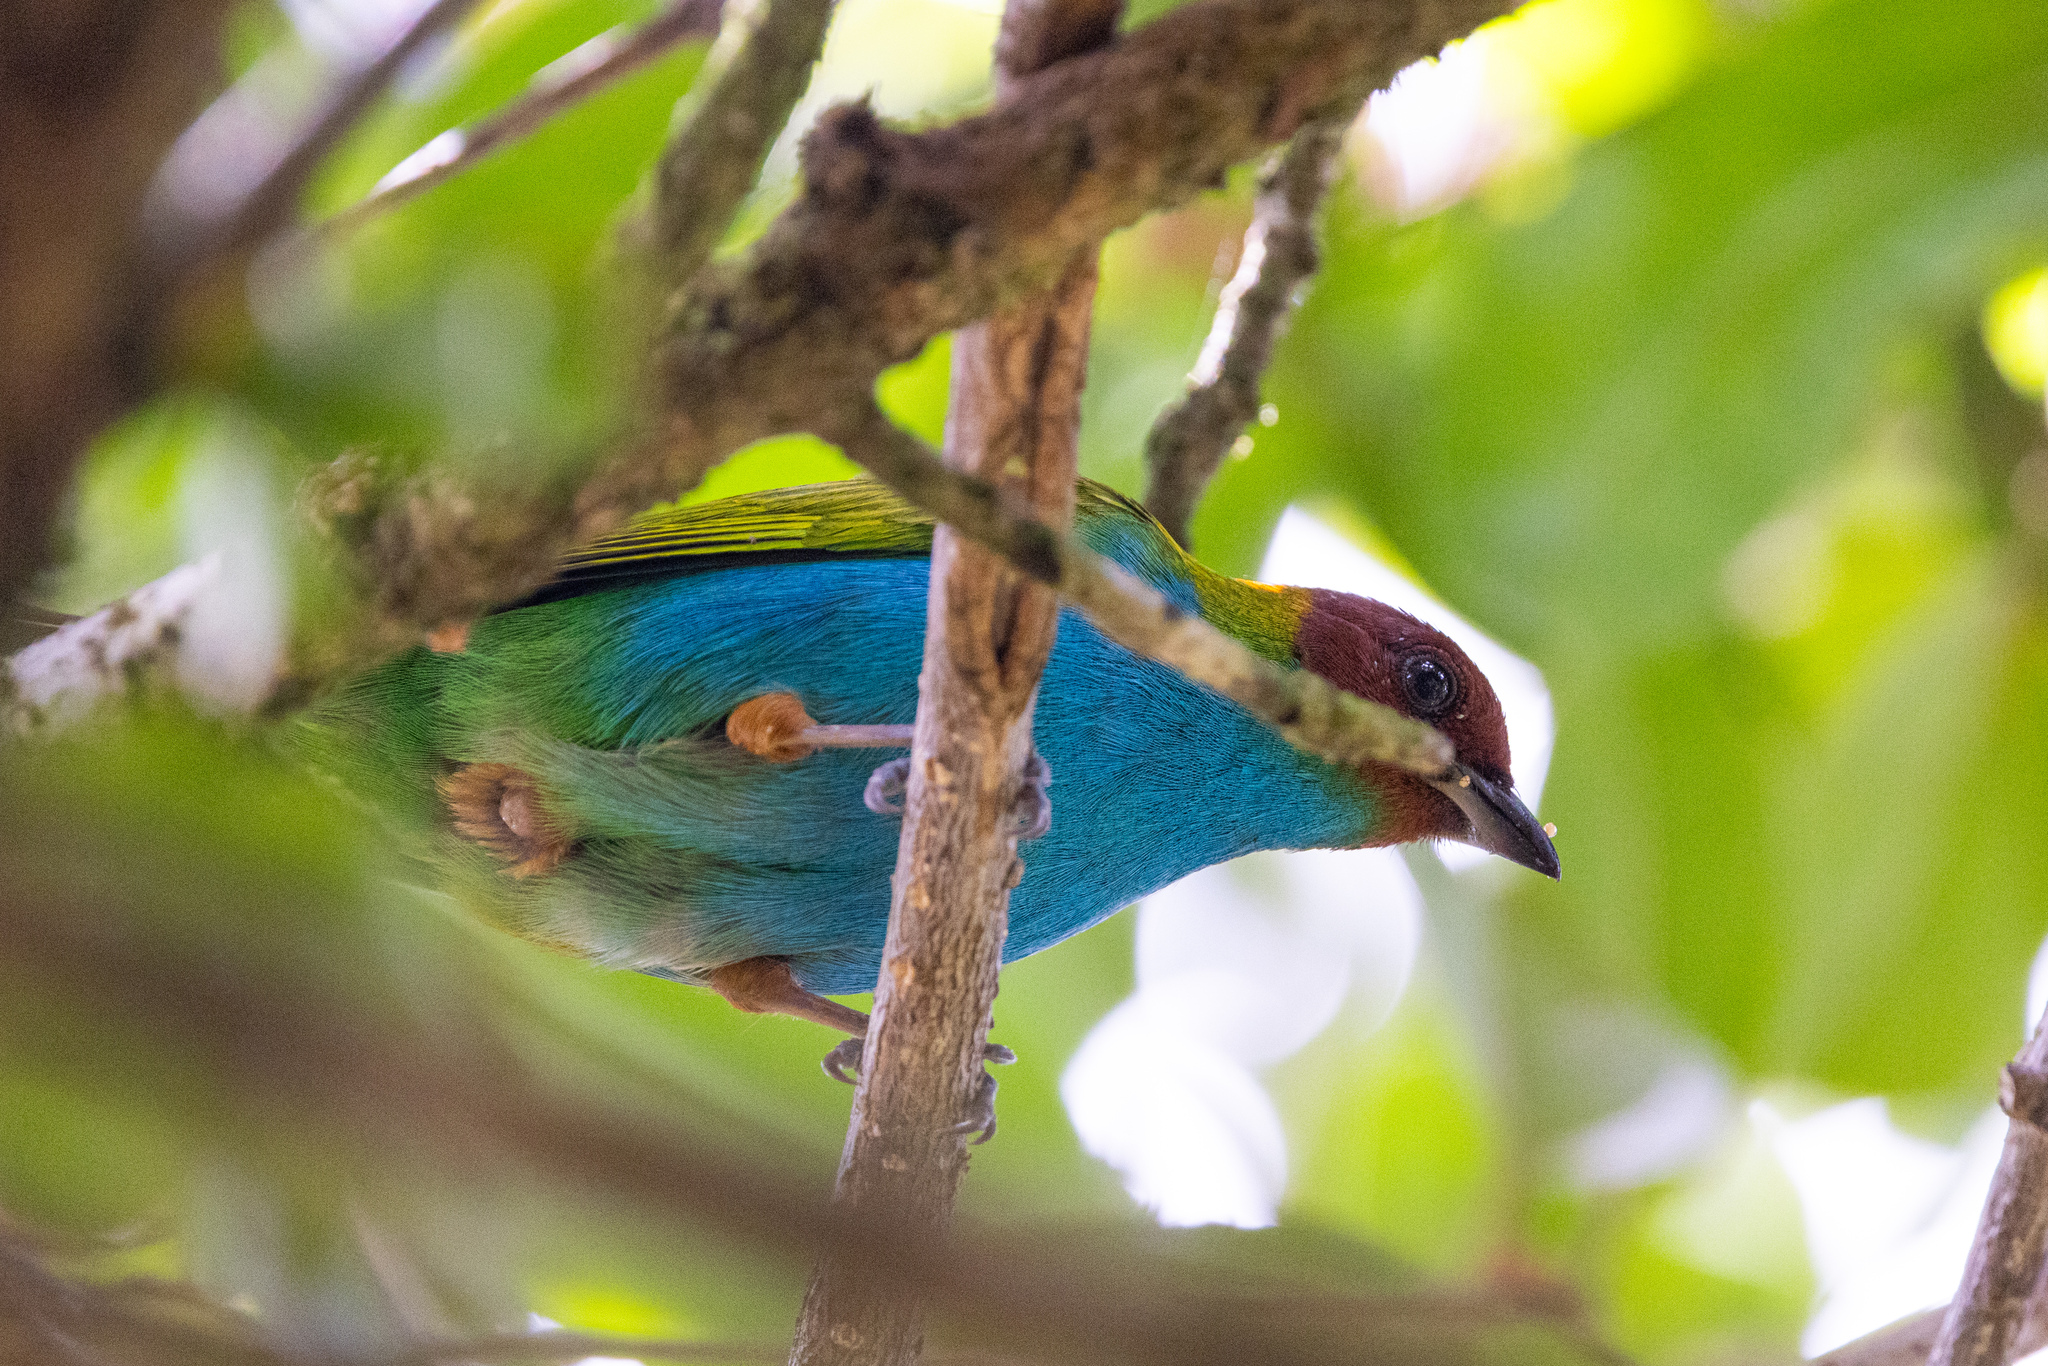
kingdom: Animalia
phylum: Chordata
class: Aves
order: Passeriformes
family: Thraupidae
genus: Tangara
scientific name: Tangara gyrola
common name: Bay-headed tanager
